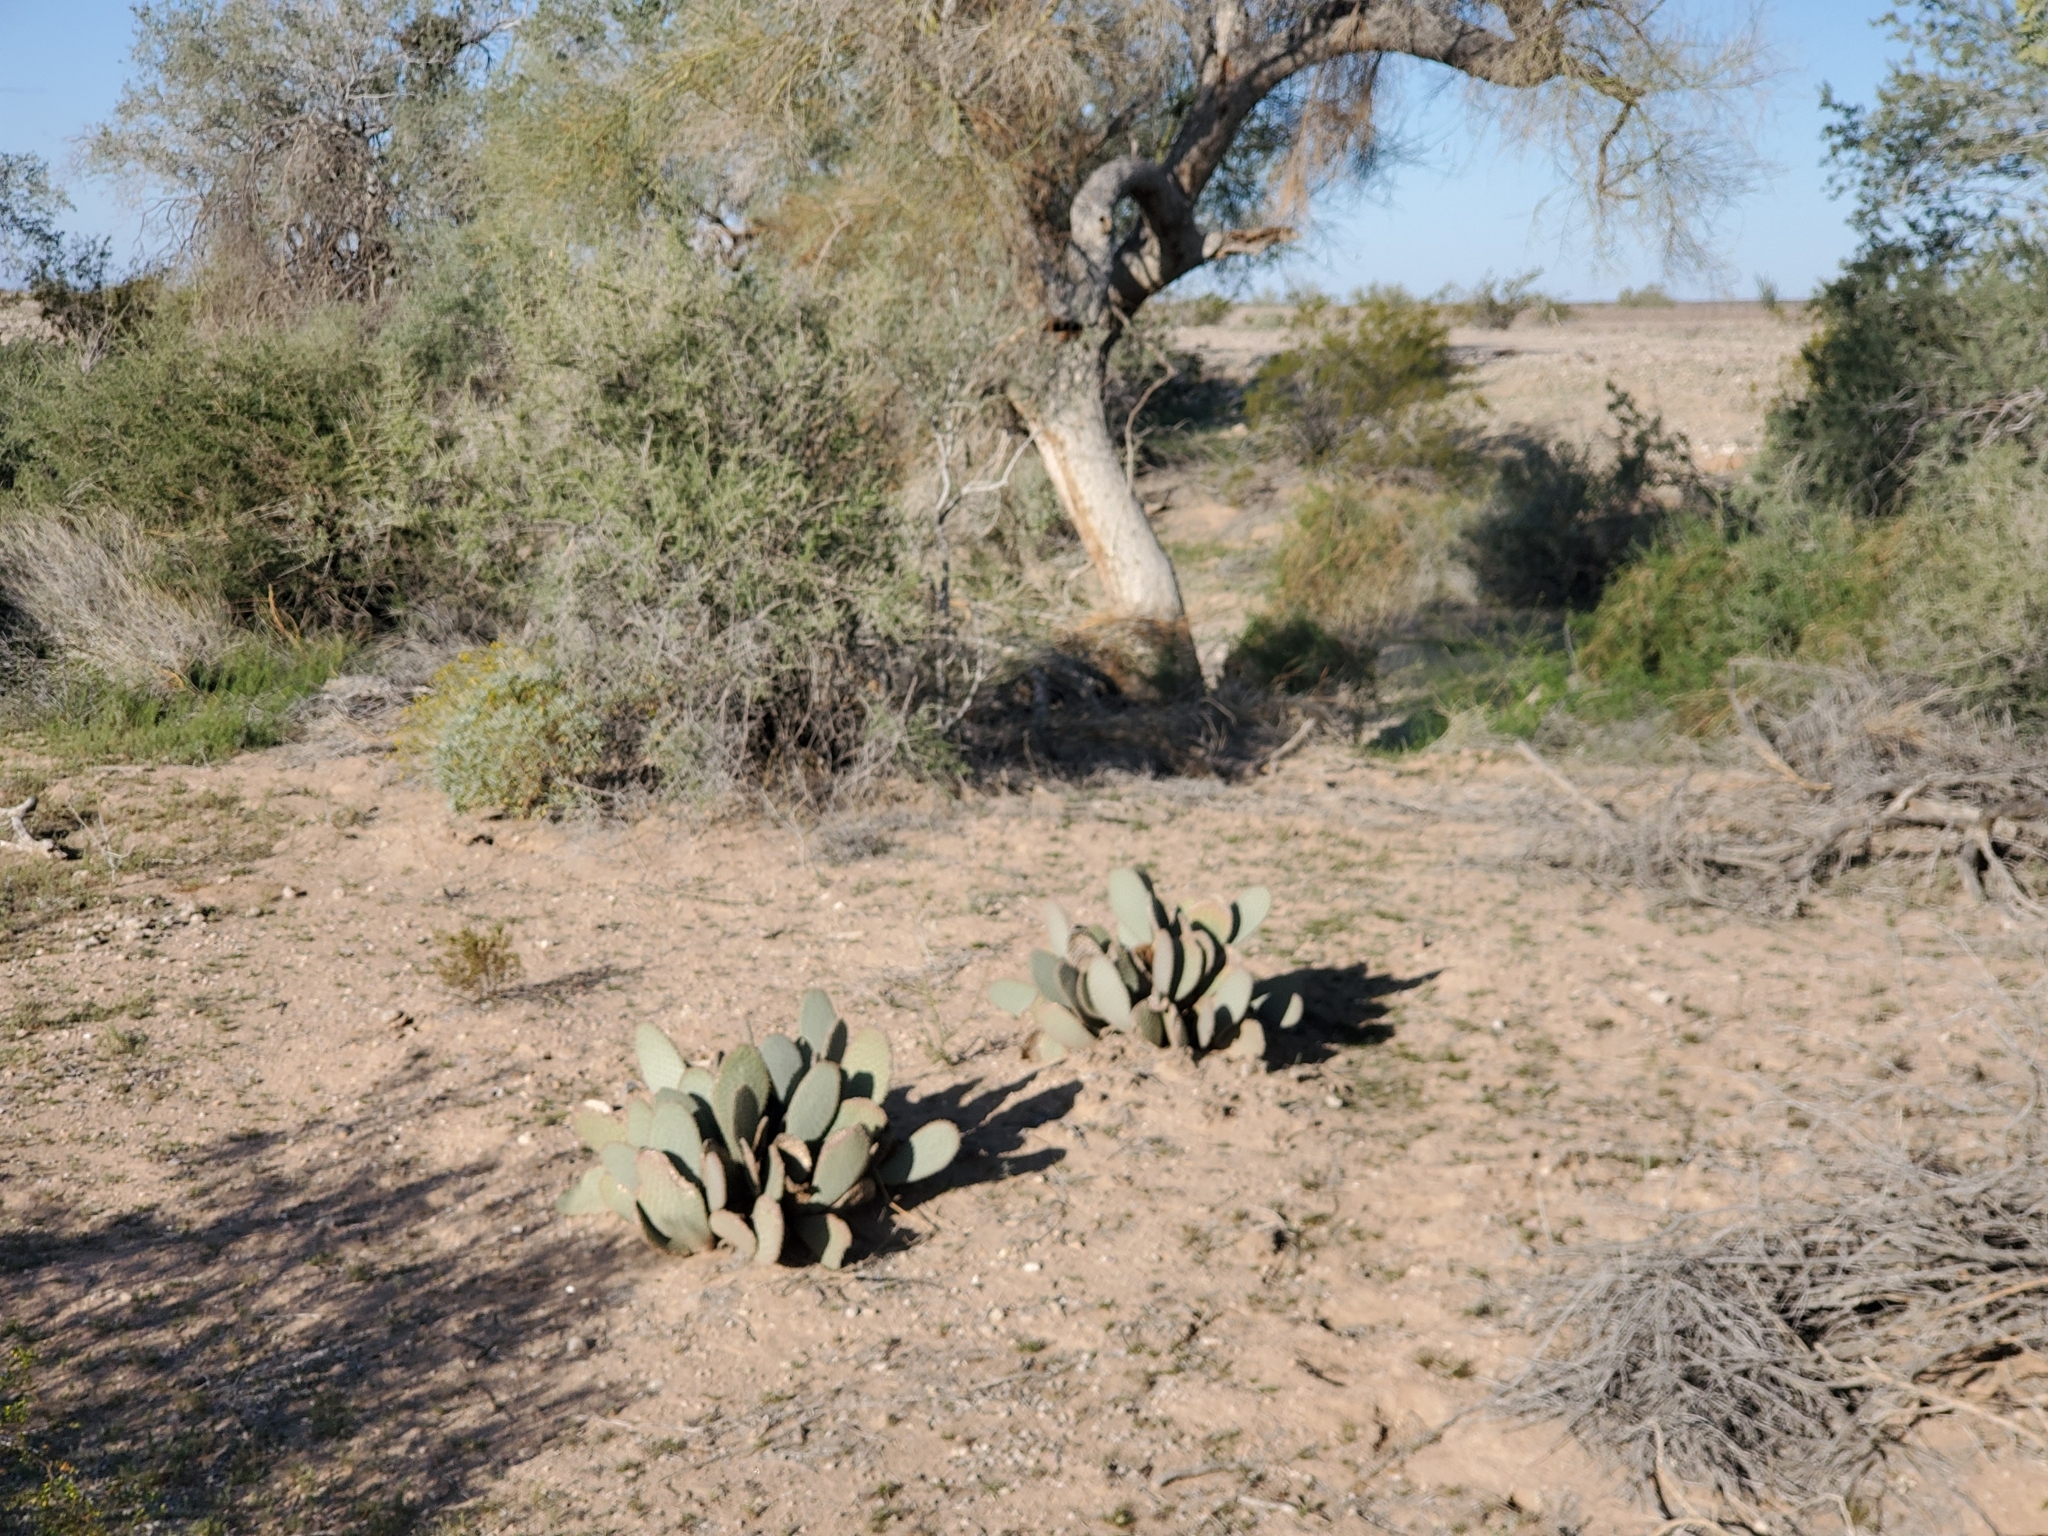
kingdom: Plantae
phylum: Tracheophyta
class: Magnoliopsida
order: Caryophyllales
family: Cactaceae
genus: Opuntia
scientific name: Opuntia basilaris
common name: Beavertail prickly-pear
